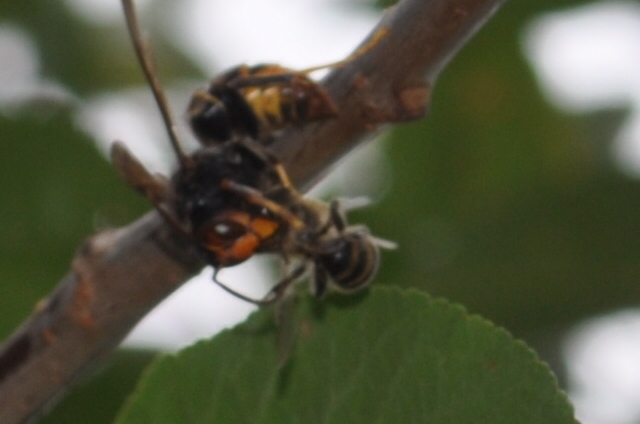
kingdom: Animalia
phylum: Arthropoda
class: Insecta
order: Hymenoptera
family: Vespidae
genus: Vespa
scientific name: Vespa velutina
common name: Asian hornet
